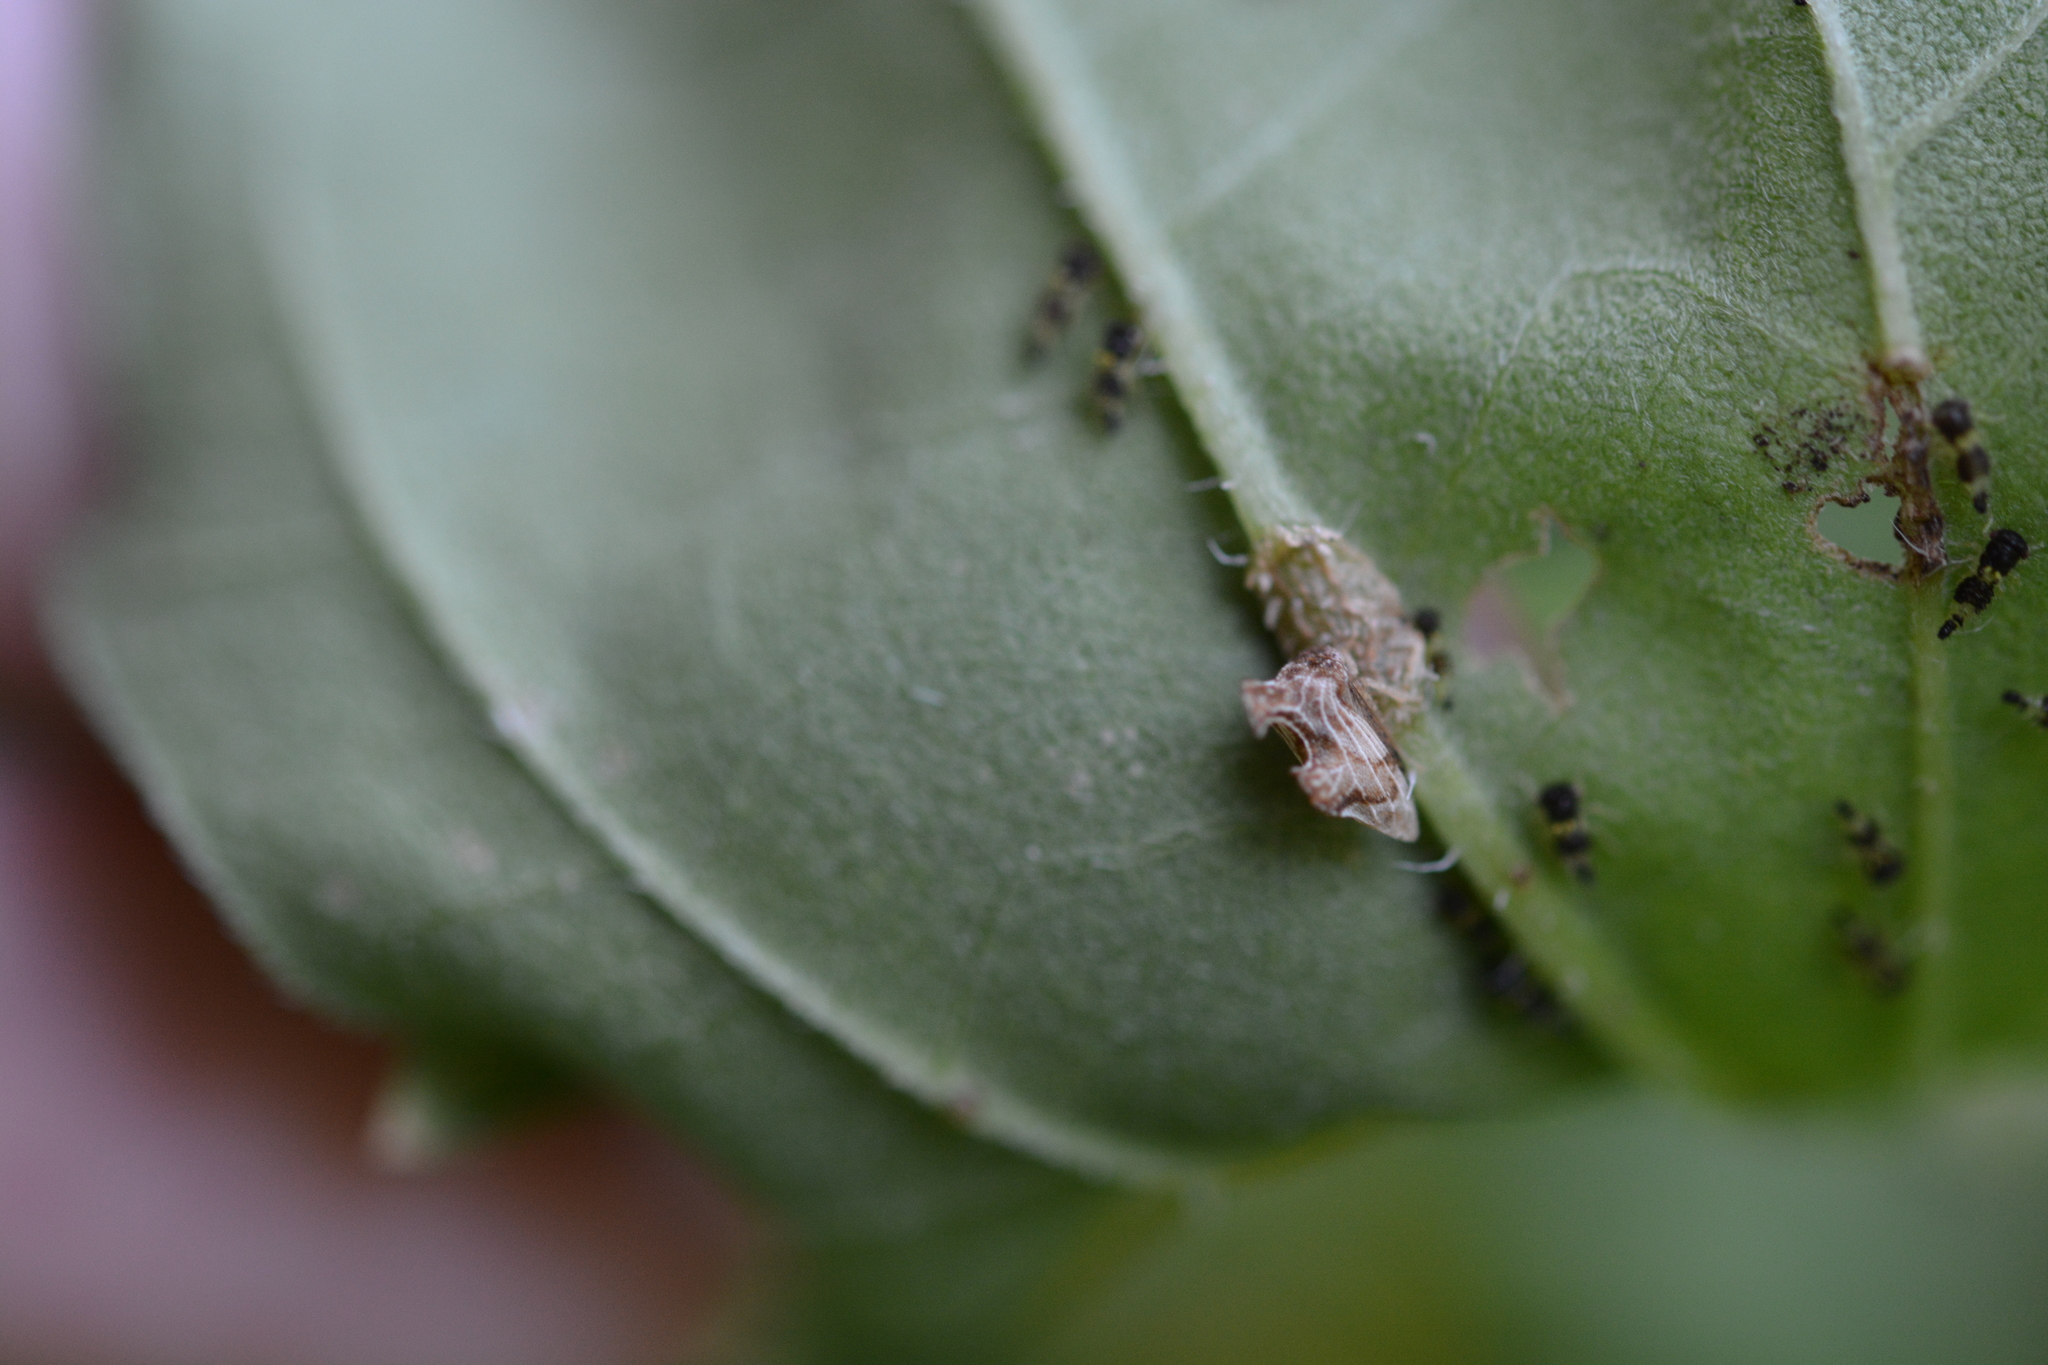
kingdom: Animalia
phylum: Arthropoda
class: Insecta
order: Hemiptera
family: Membracidae
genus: Entylia
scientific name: Entylia carinata
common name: Keeled treehopper
